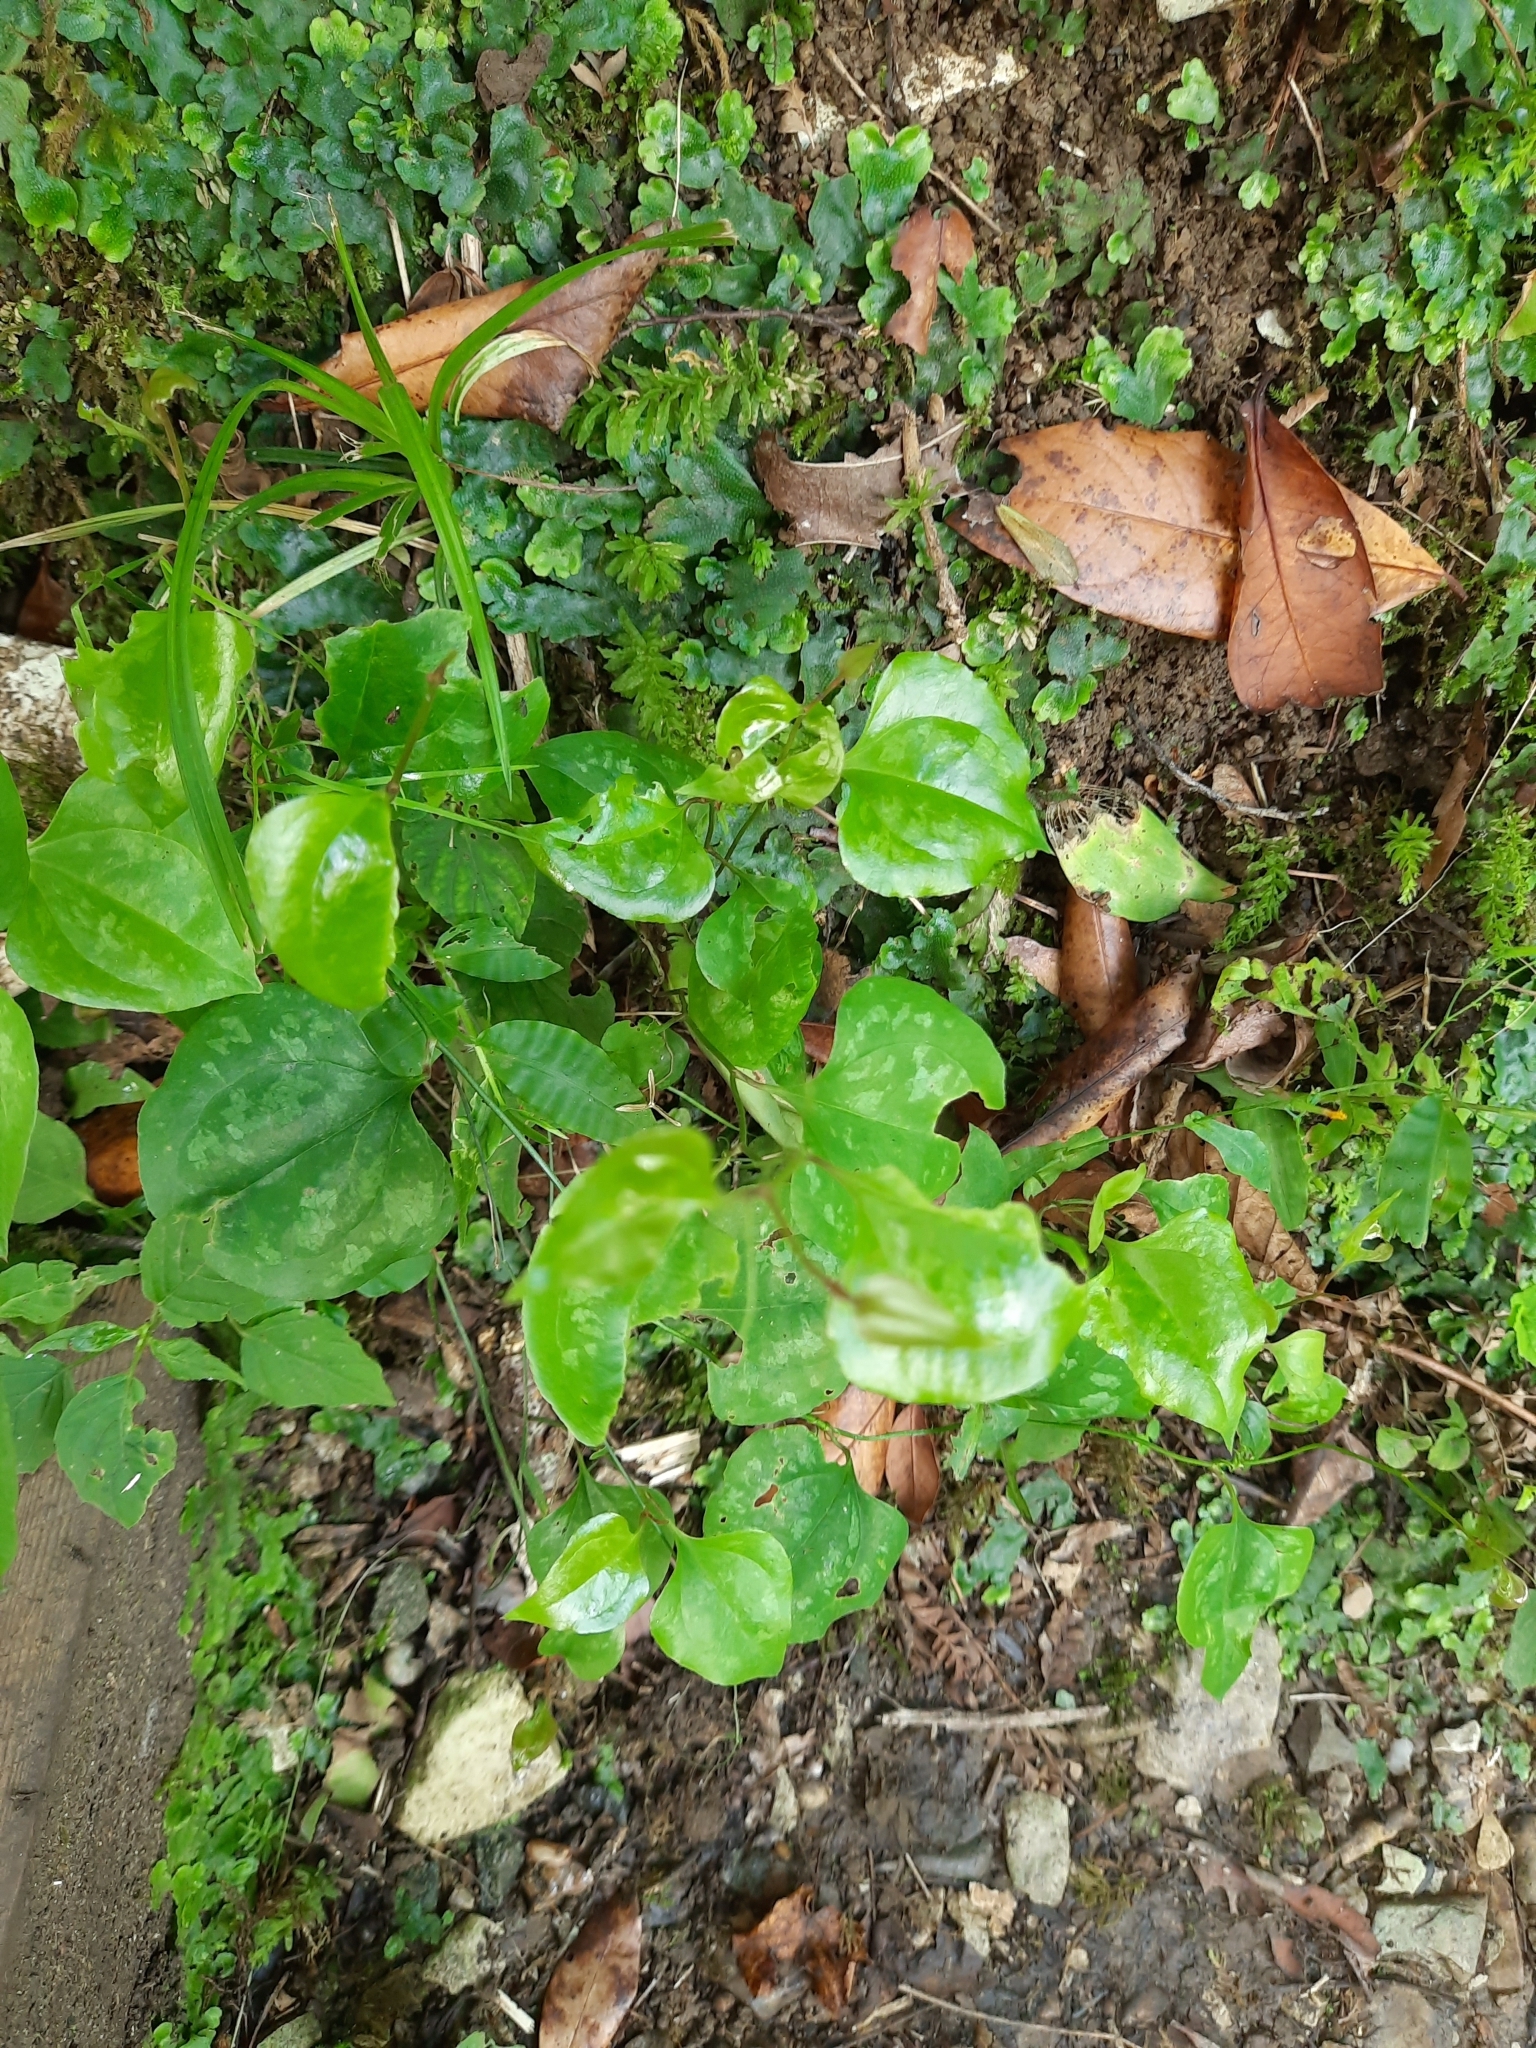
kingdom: Plantae
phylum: Tracheophyta
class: Liliopsida
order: Liliales
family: Smilacaceae
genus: Smilax
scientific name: Smilax excelsa
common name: Larger smilax
